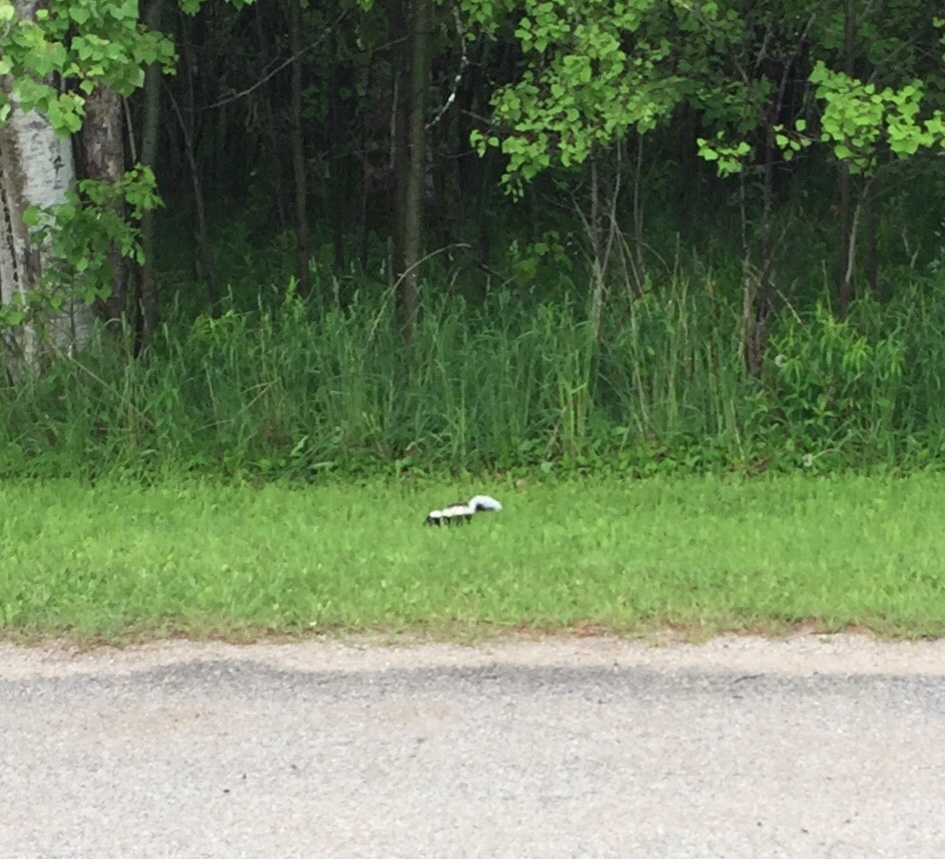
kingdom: Animalia
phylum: Chordata
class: Mammalia
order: Carnivora
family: Mephitidae
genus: Mephitis
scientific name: Mephitis mephitis
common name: Striped skunk
